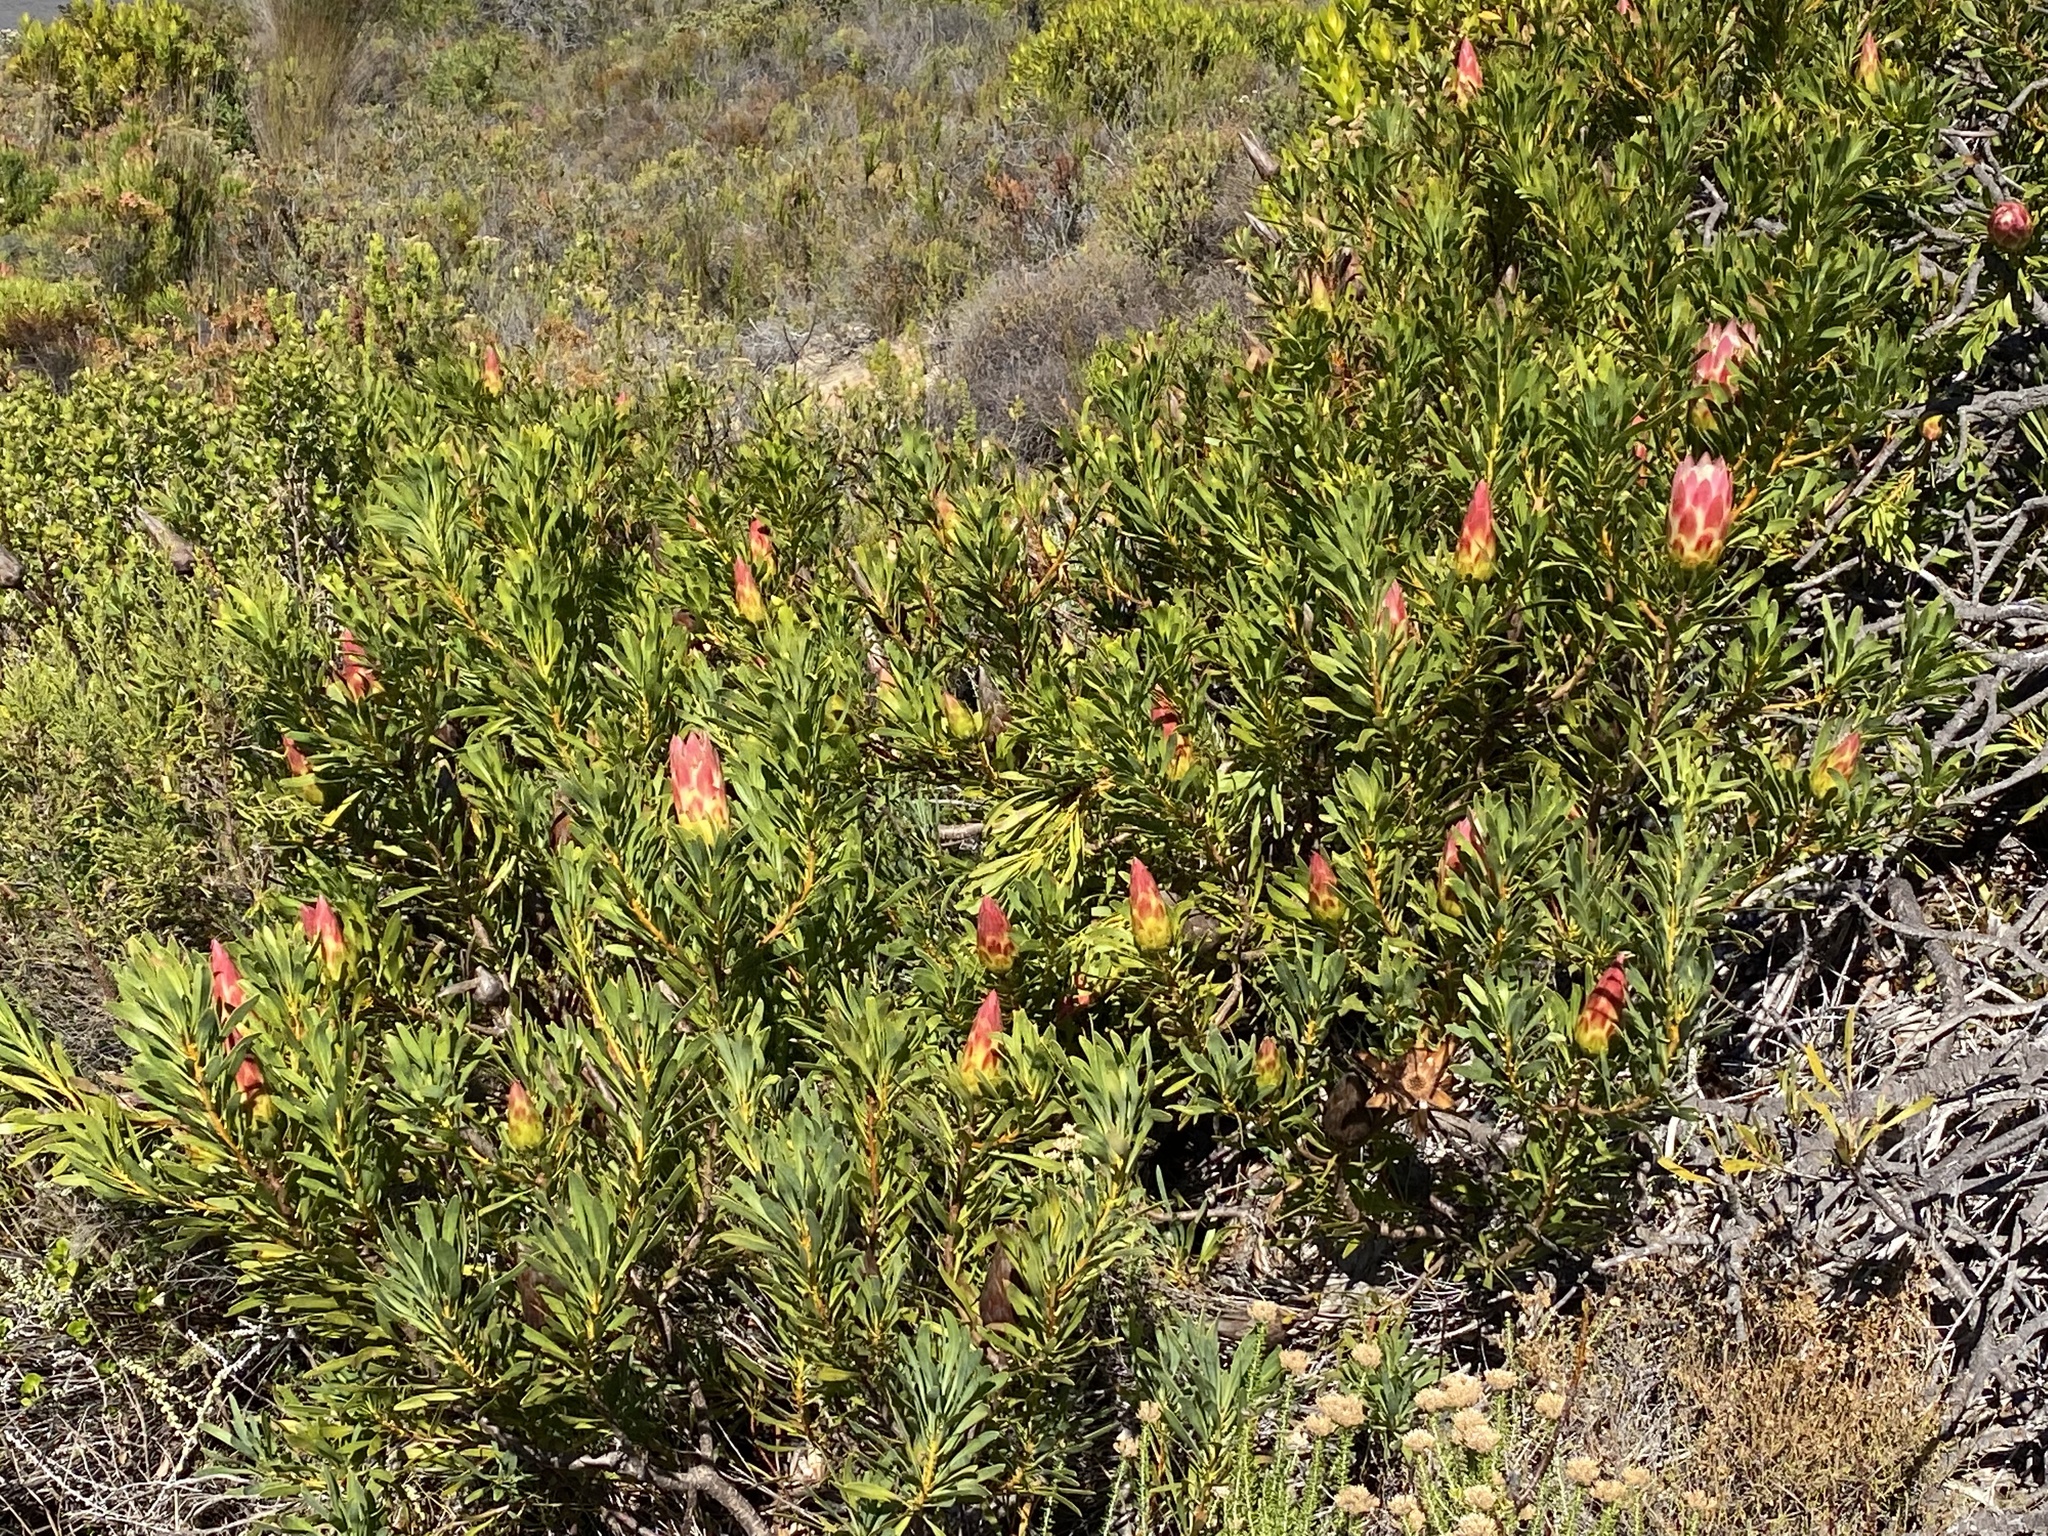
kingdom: Plantae
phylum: Tracheophyta
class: Magnoliopsida
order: Proteales
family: Proteaceae
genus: Protea
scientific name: Protea repens
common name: Sugarbush
